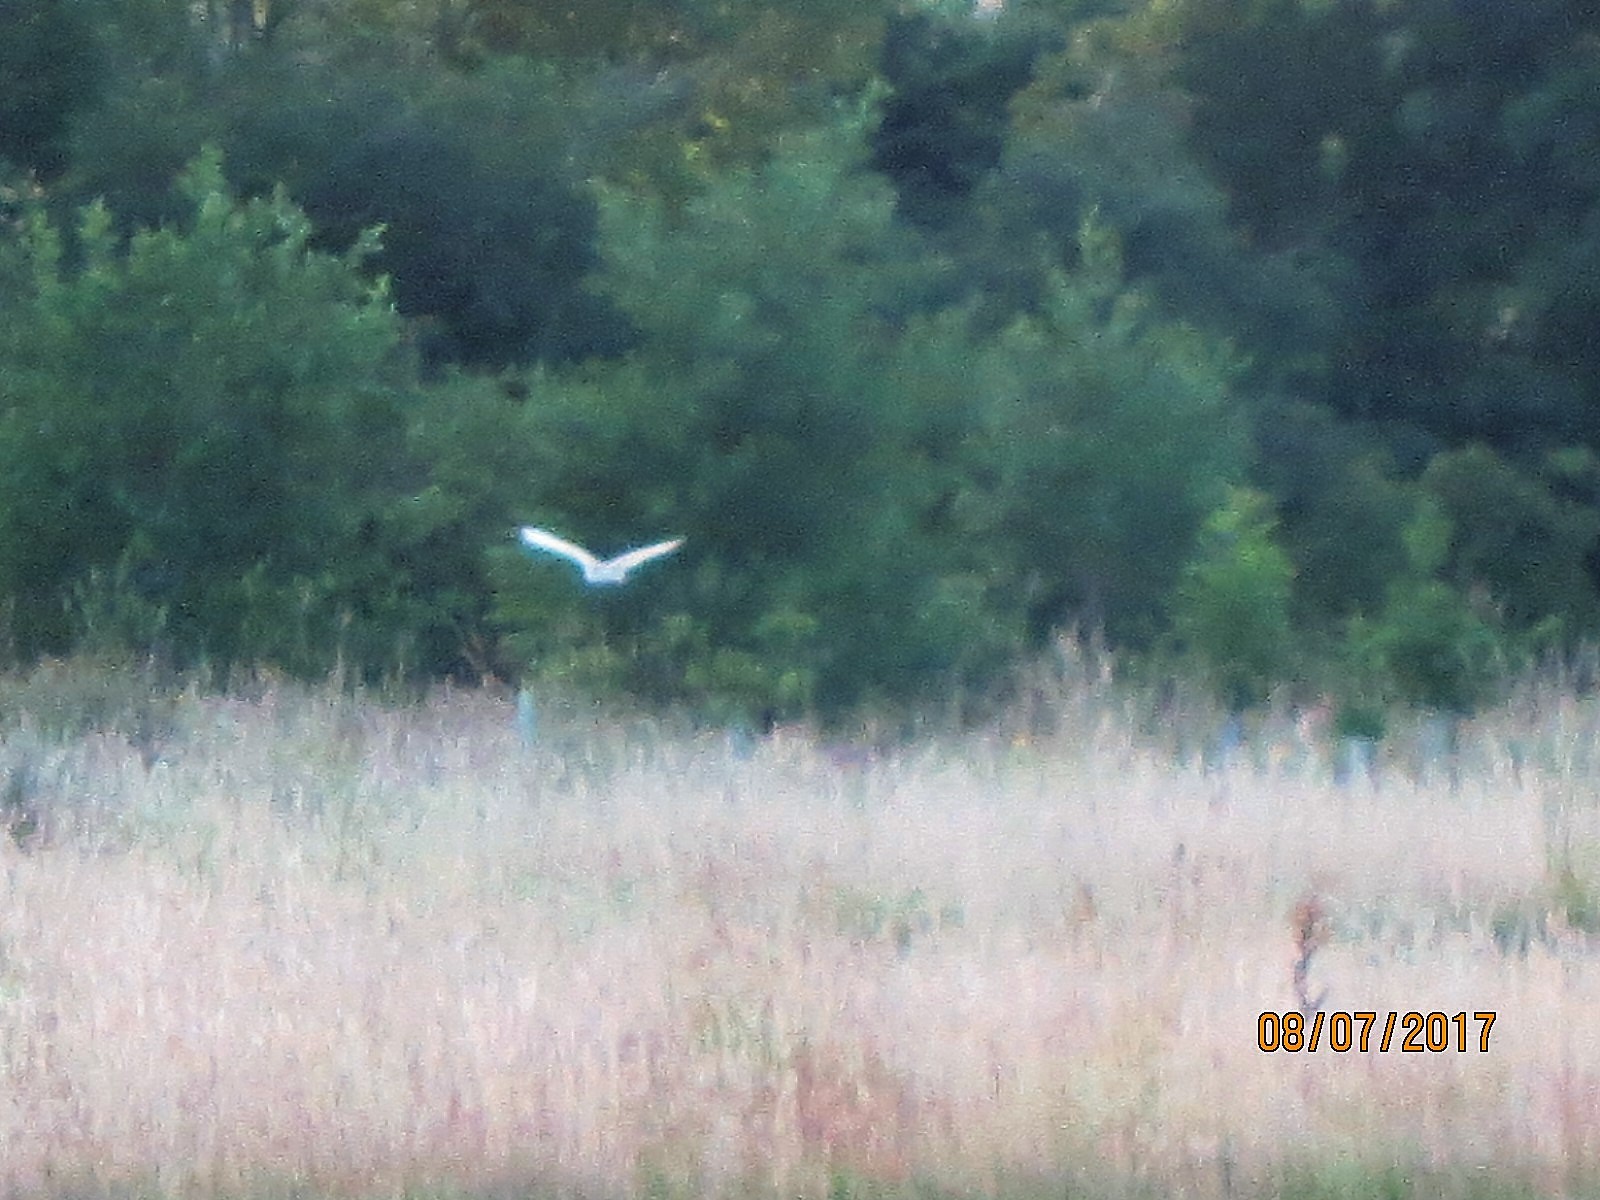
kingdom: Animalia
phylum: Chordata
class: Aves
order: Strigiformes
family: Tytonidae
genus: Tyto
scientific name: Tyto alba
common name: Barn owl
